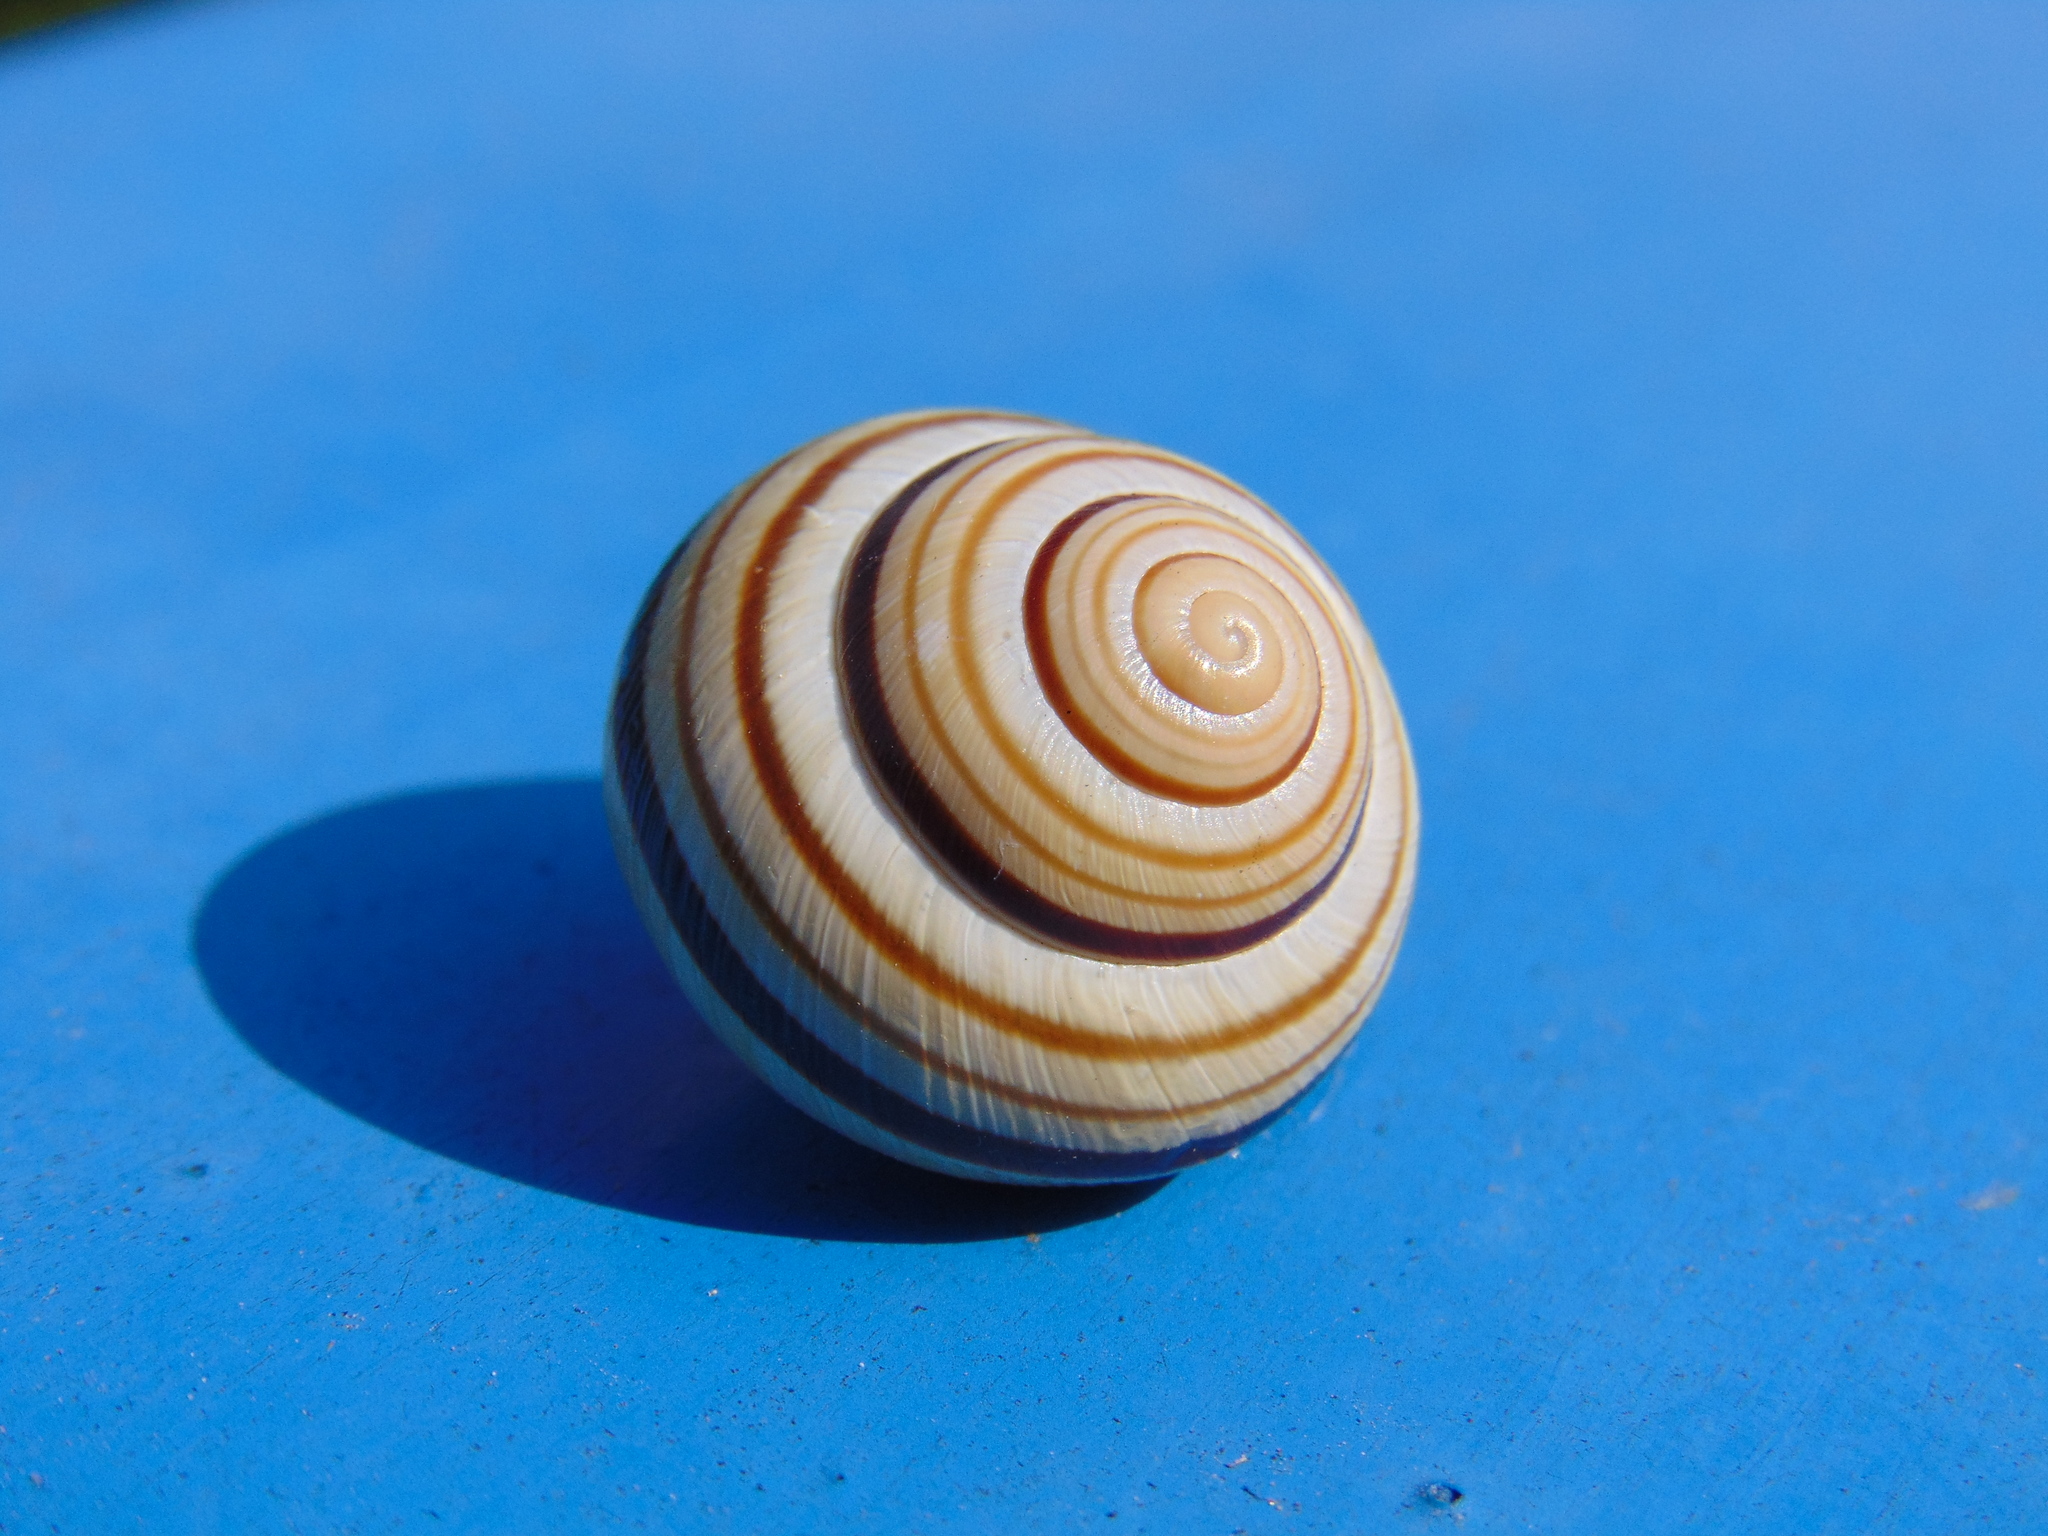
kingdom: Animalia
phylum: Mollusca
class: Gastropoda
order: Stylommatophora
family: Helicidae
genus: Caucasotachea
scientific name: Caucasotachea vindobonensis
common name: European helicid land snail
